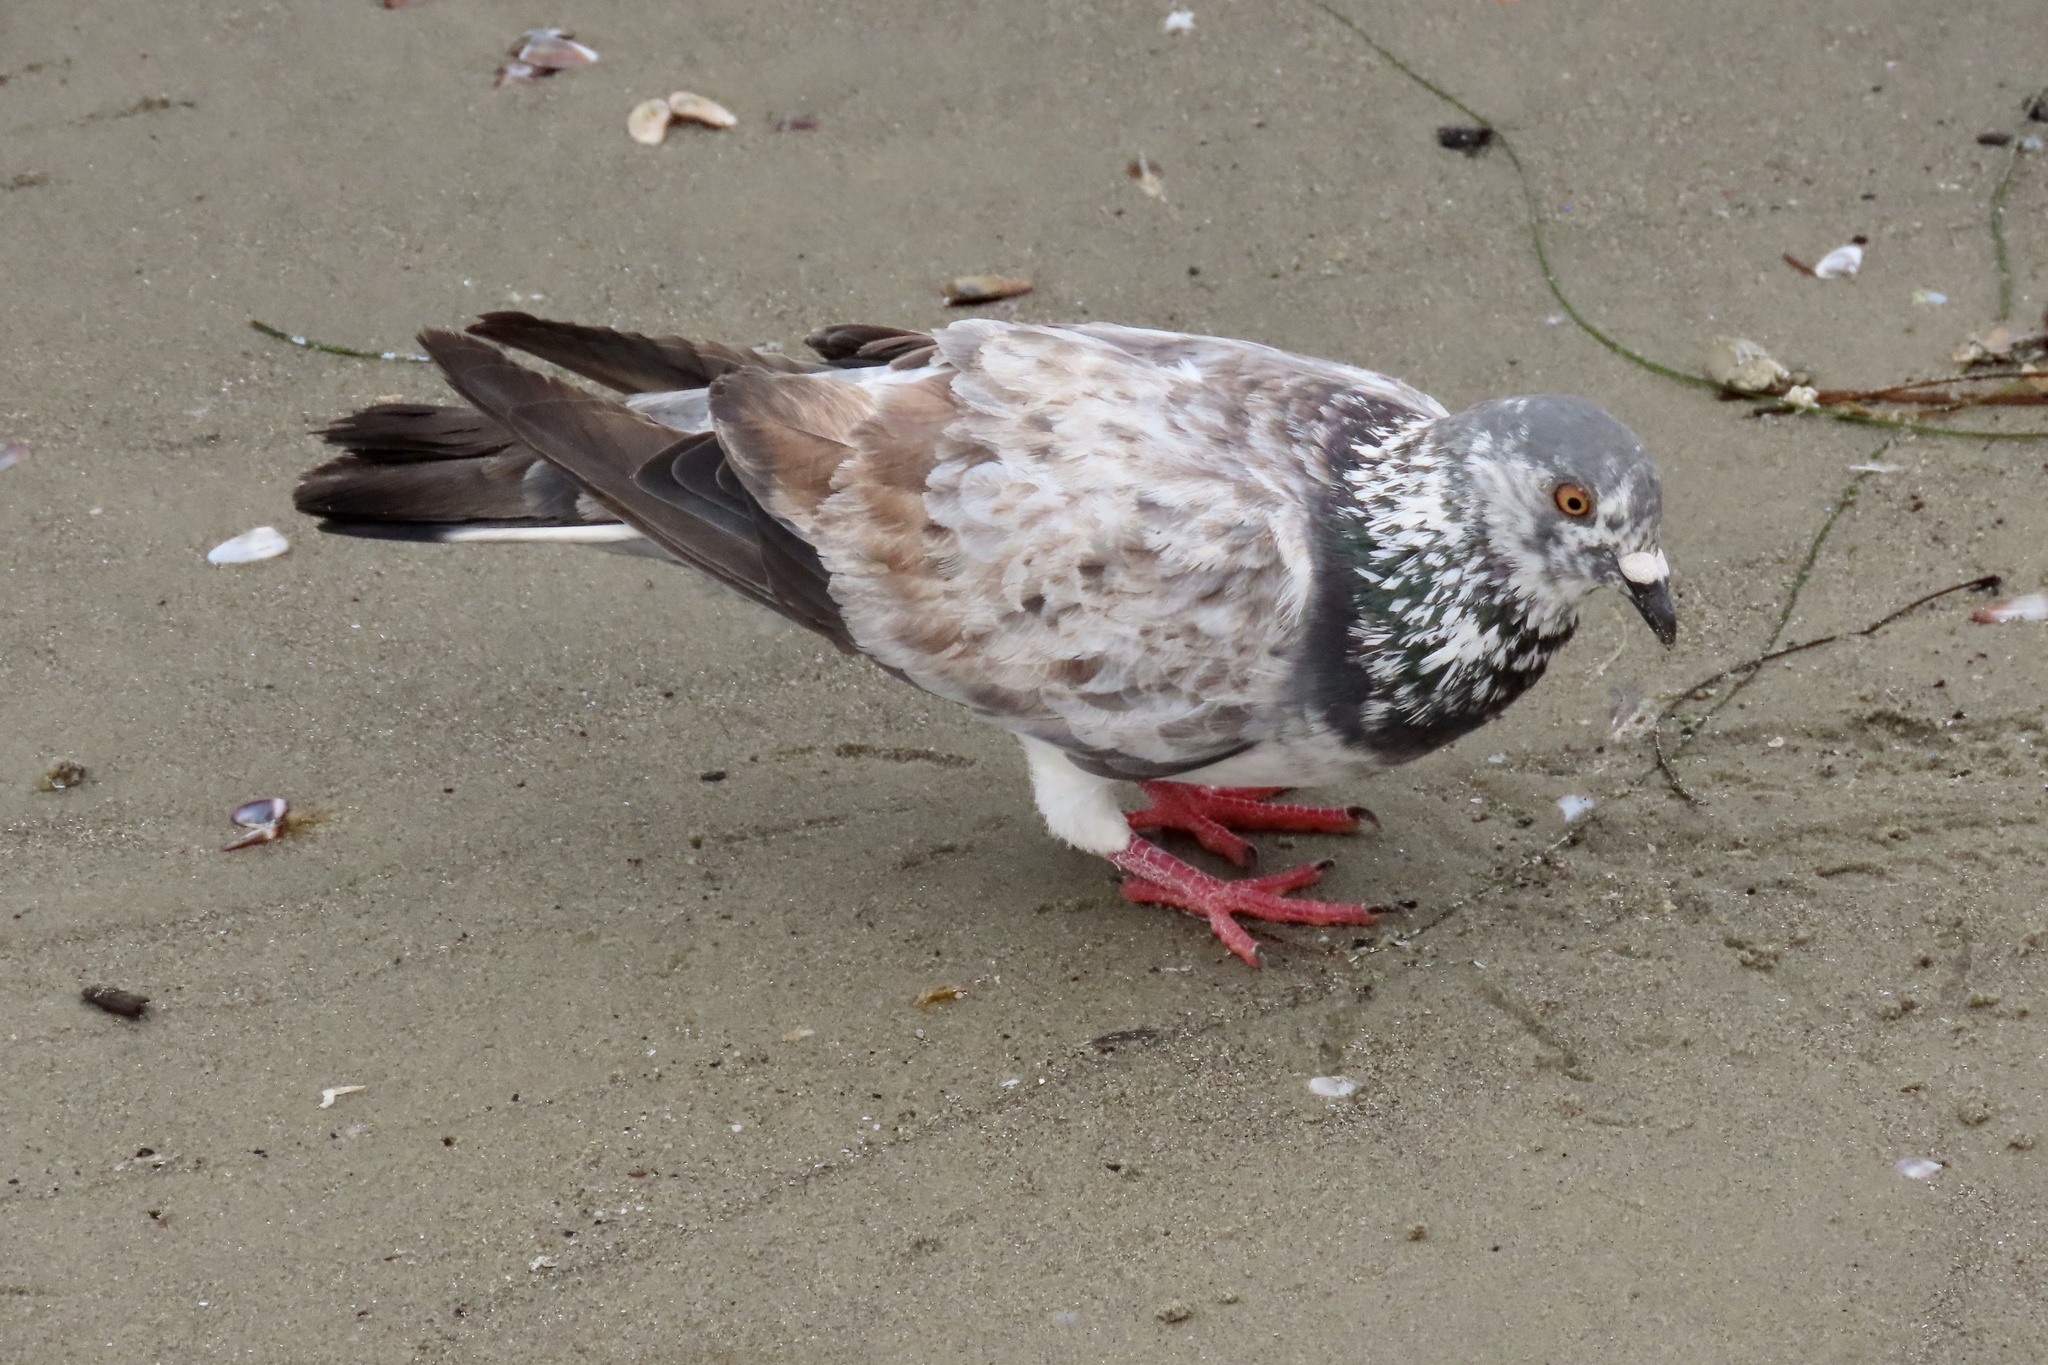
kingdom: Animalia
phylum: Chordata
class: Aves
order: Columbiformes
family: Columbidae
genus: Columba
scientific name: Columba livia
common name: Rock pigeon
